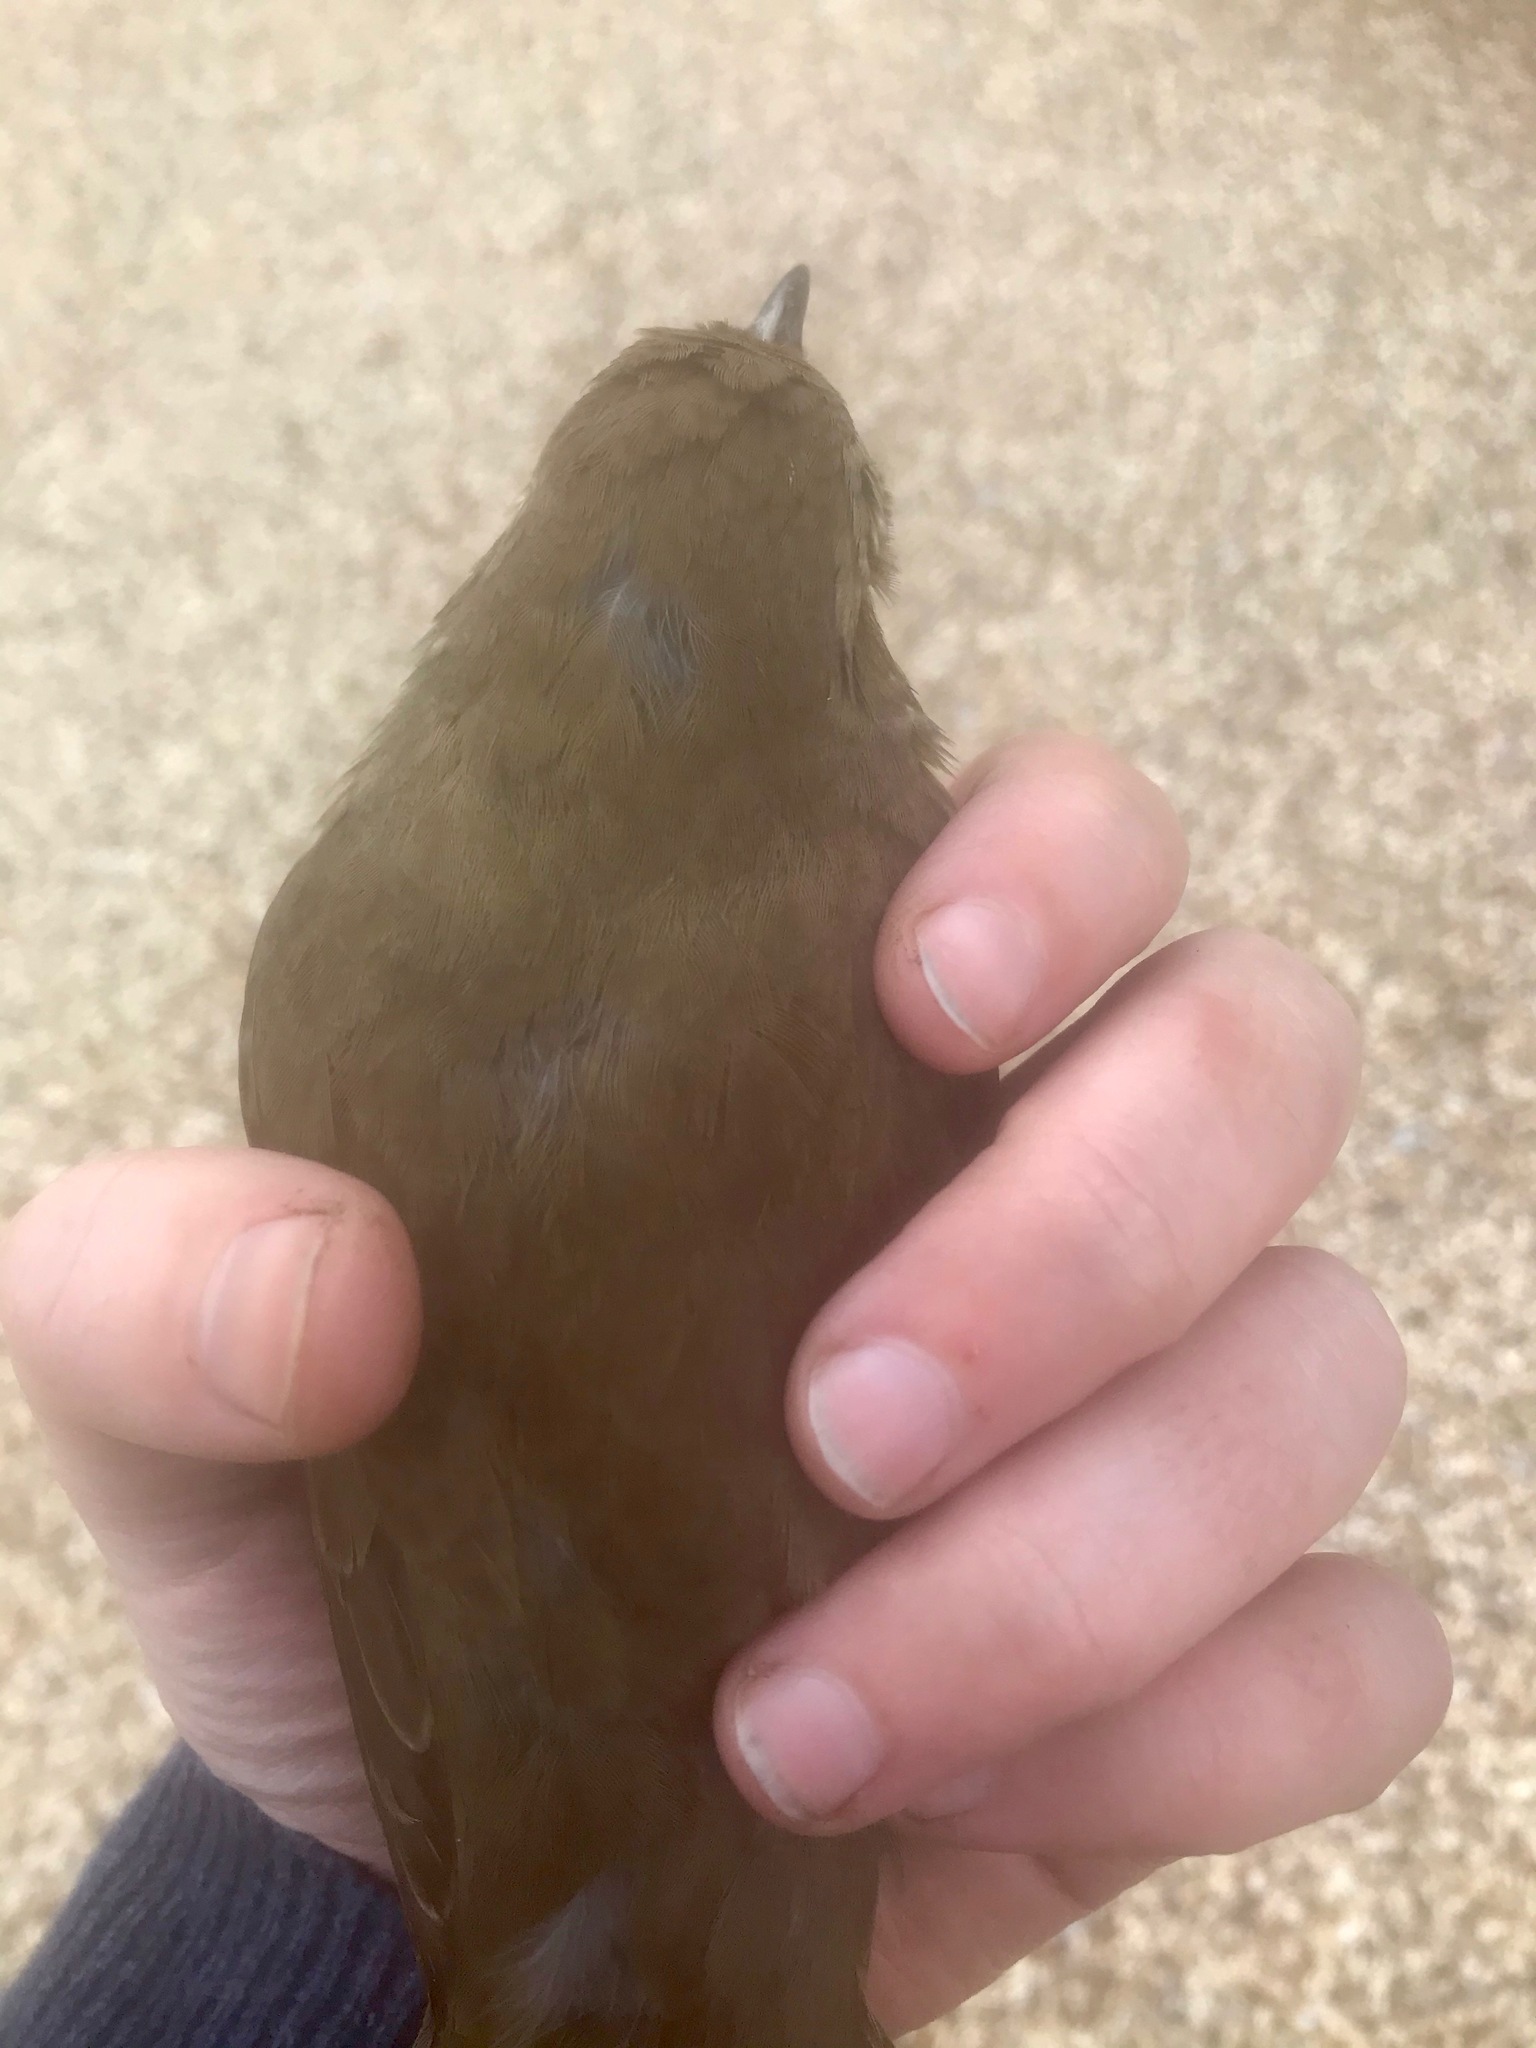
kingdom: Animalia
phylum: Chordata
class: Aves
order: Passeriformes
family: Turdidae
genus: Turdus
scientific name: Turdus philomelos
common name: Song thrush
